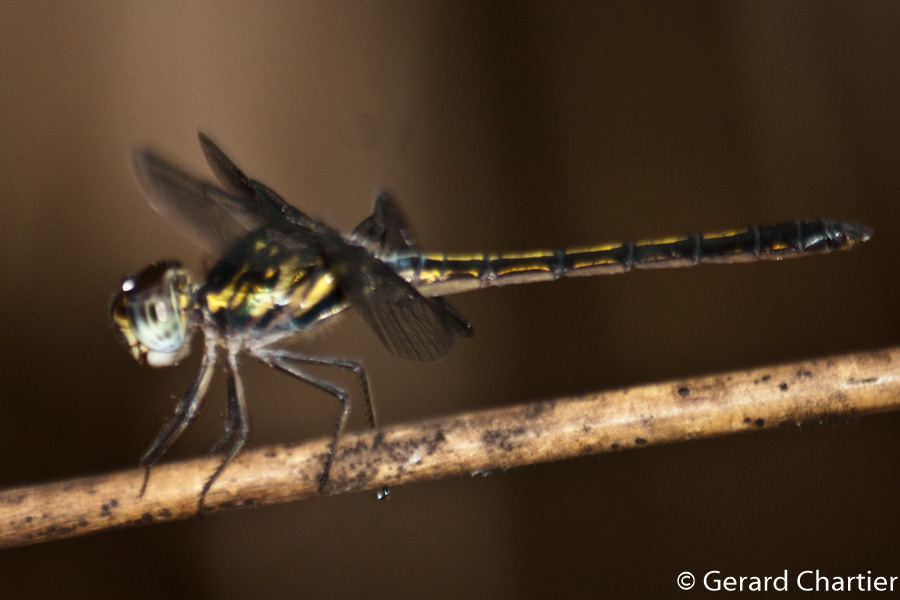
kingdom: Animalia
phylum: Arthropoda
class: Insecta
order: Odonata
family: Libellulidae
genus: Cratilla
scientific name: Cratilla lineata
